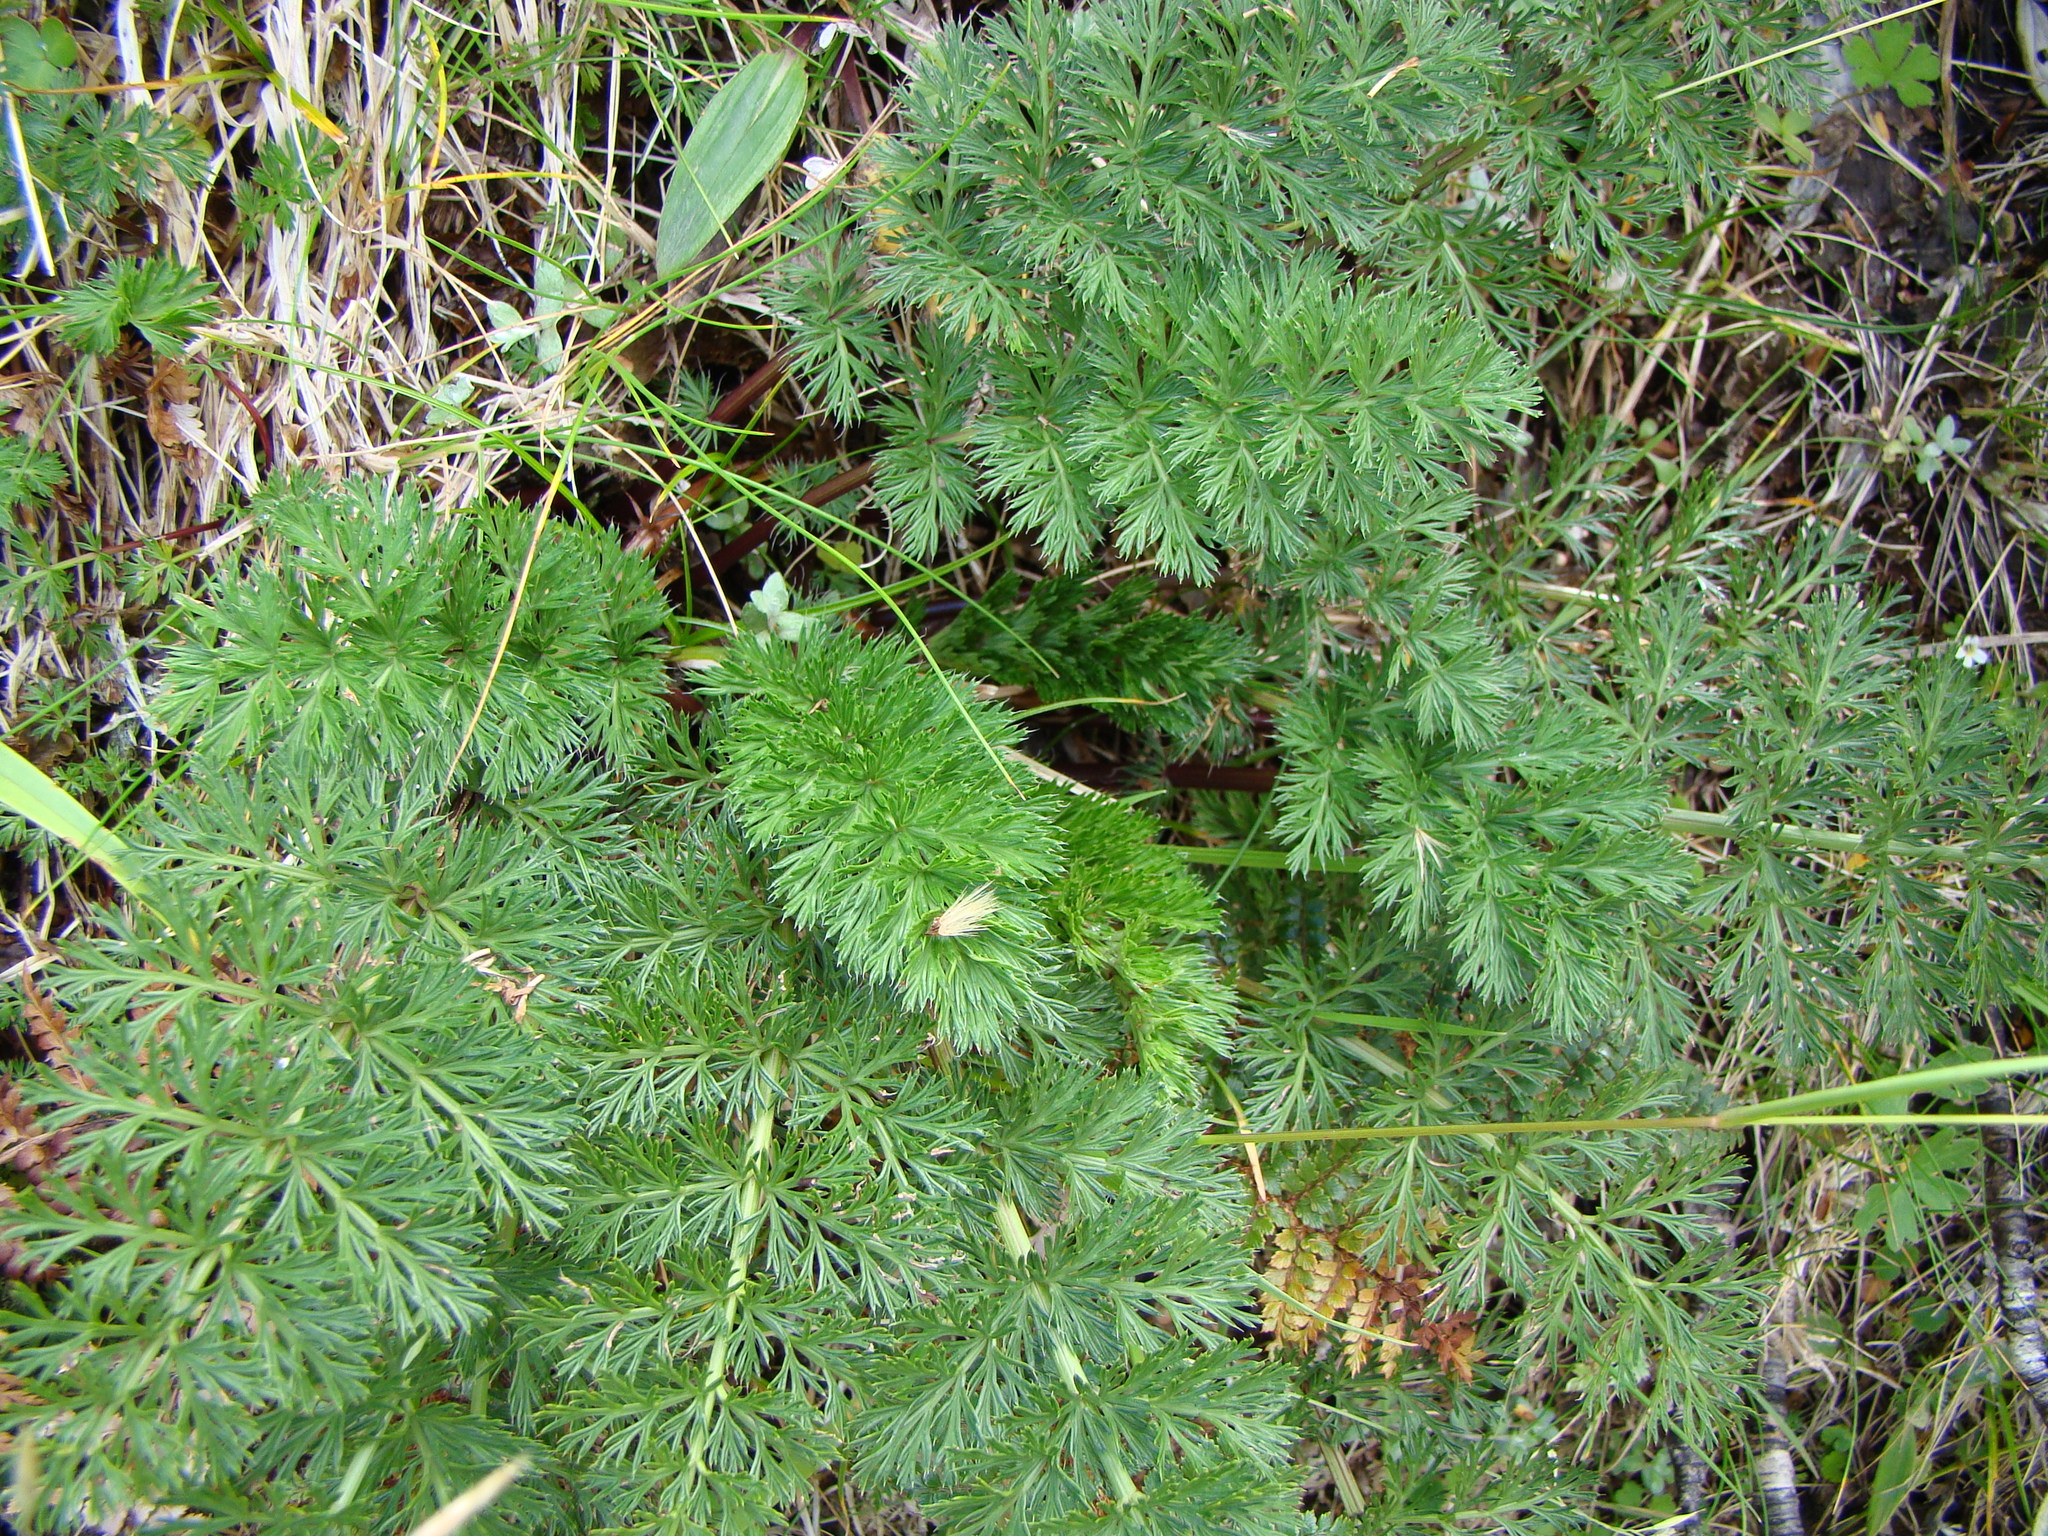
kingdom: Plantae
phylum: Tracheophyta
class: Magnoliopsida
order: Apiales
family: Apiaceae
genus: Anisotome
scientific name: Anisotome haastii
